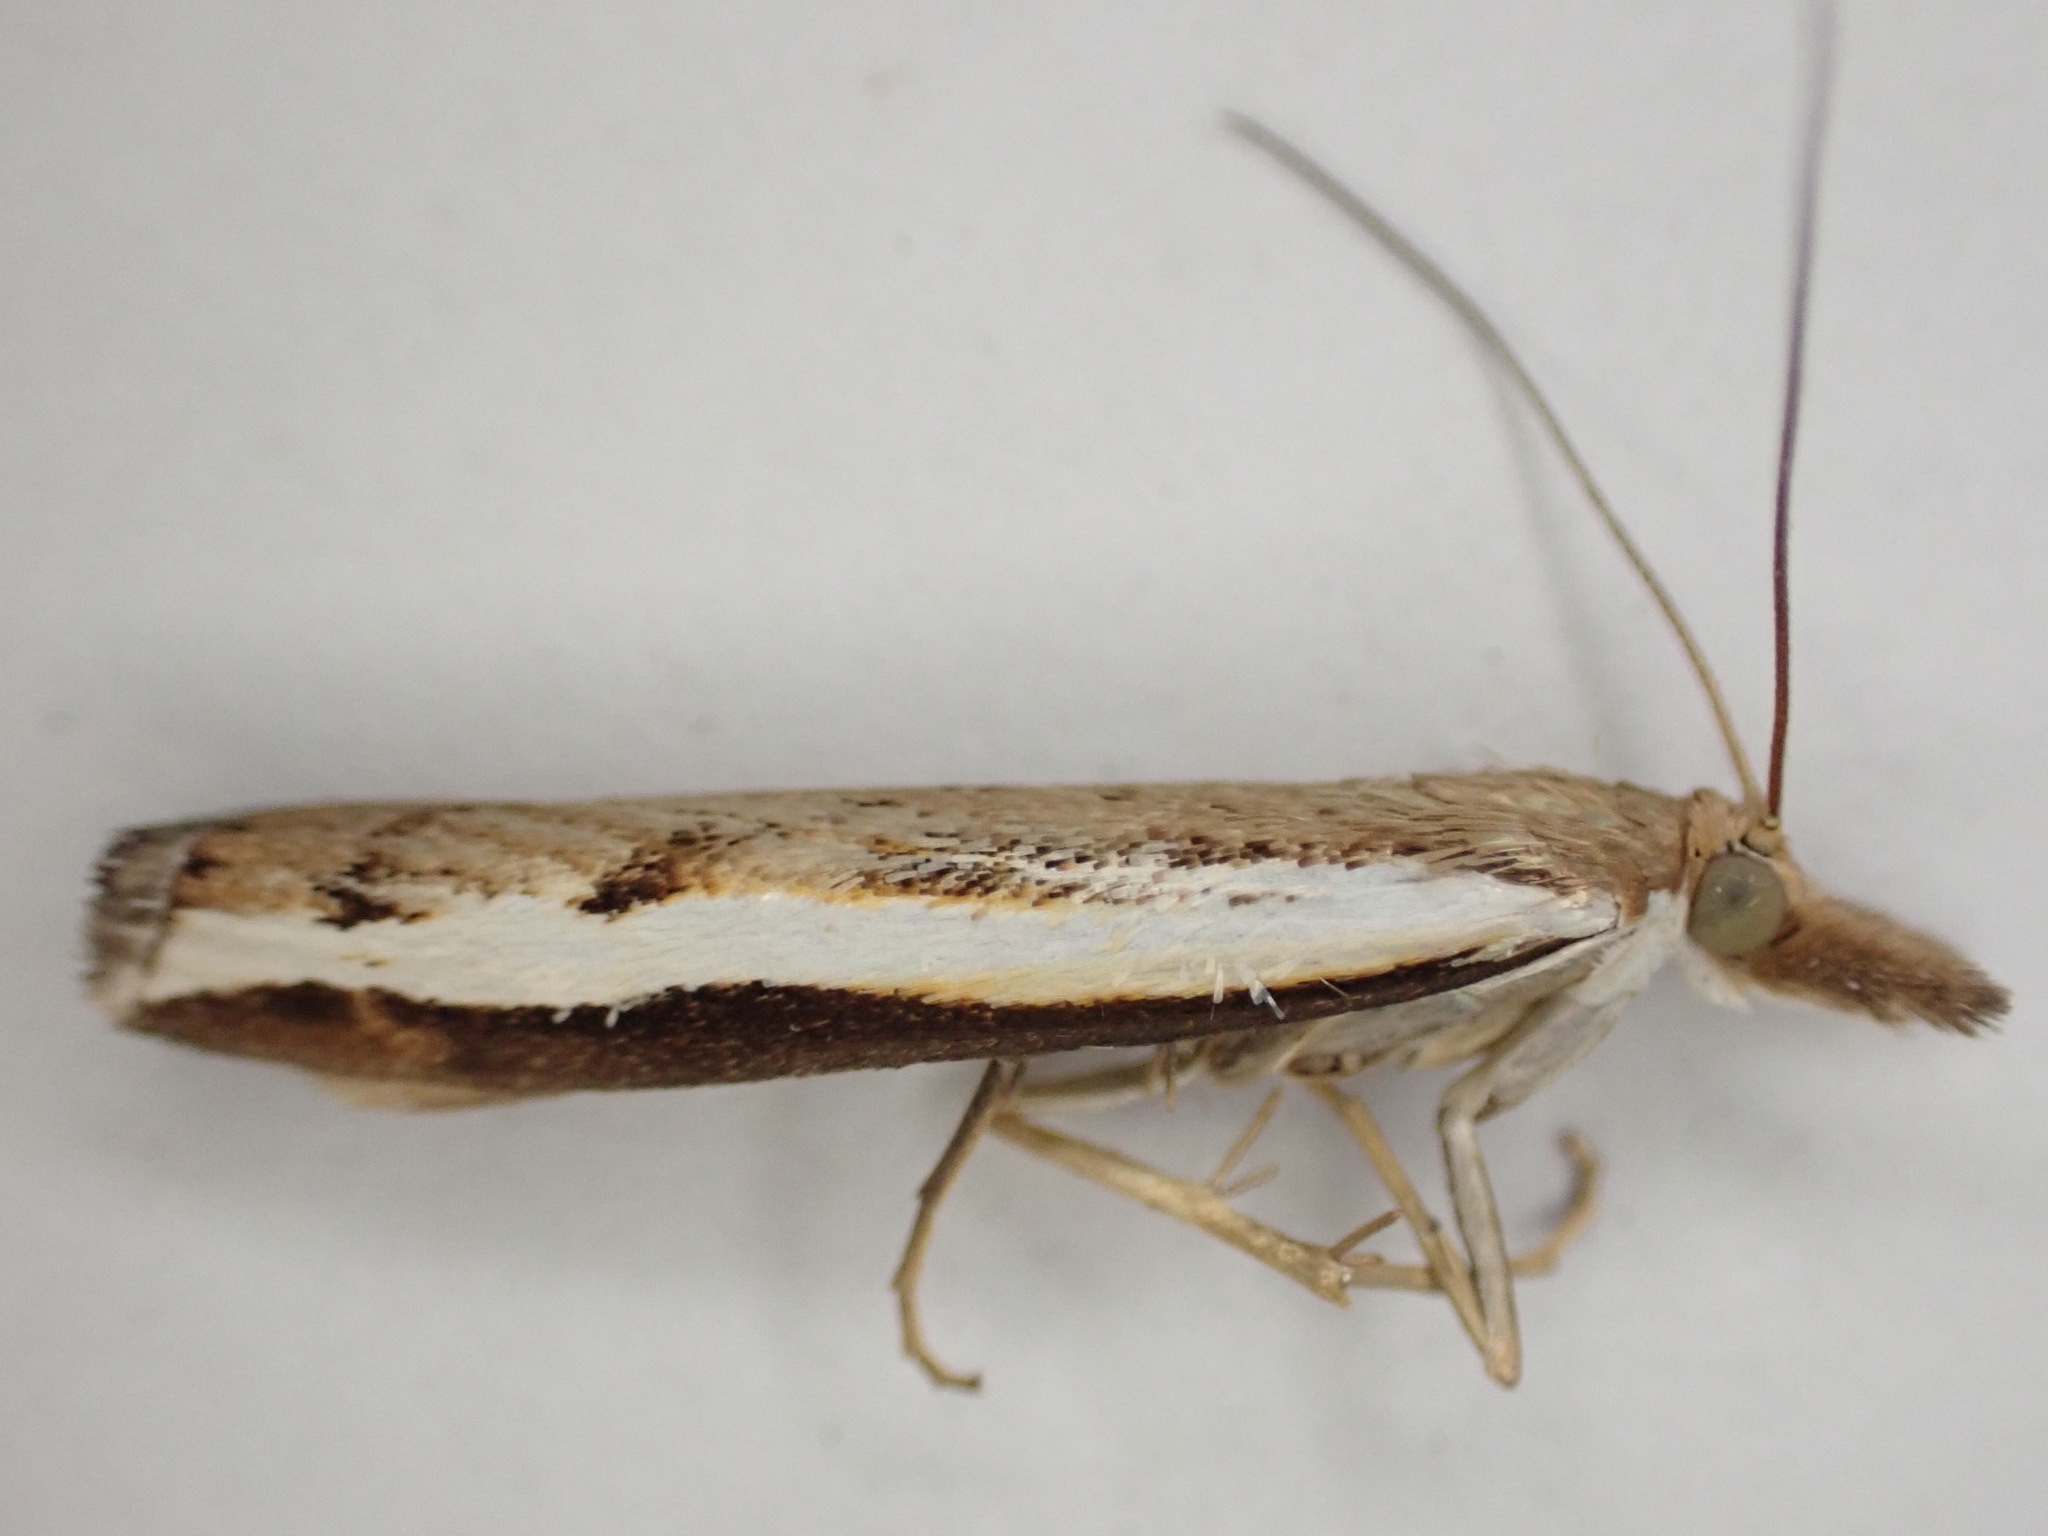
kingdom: Animalia
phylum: Arthropoda
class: Insecta
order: Lepidoptera
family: Crambidae
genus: Orocrambus
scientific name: Orocrambus flexuosellus
